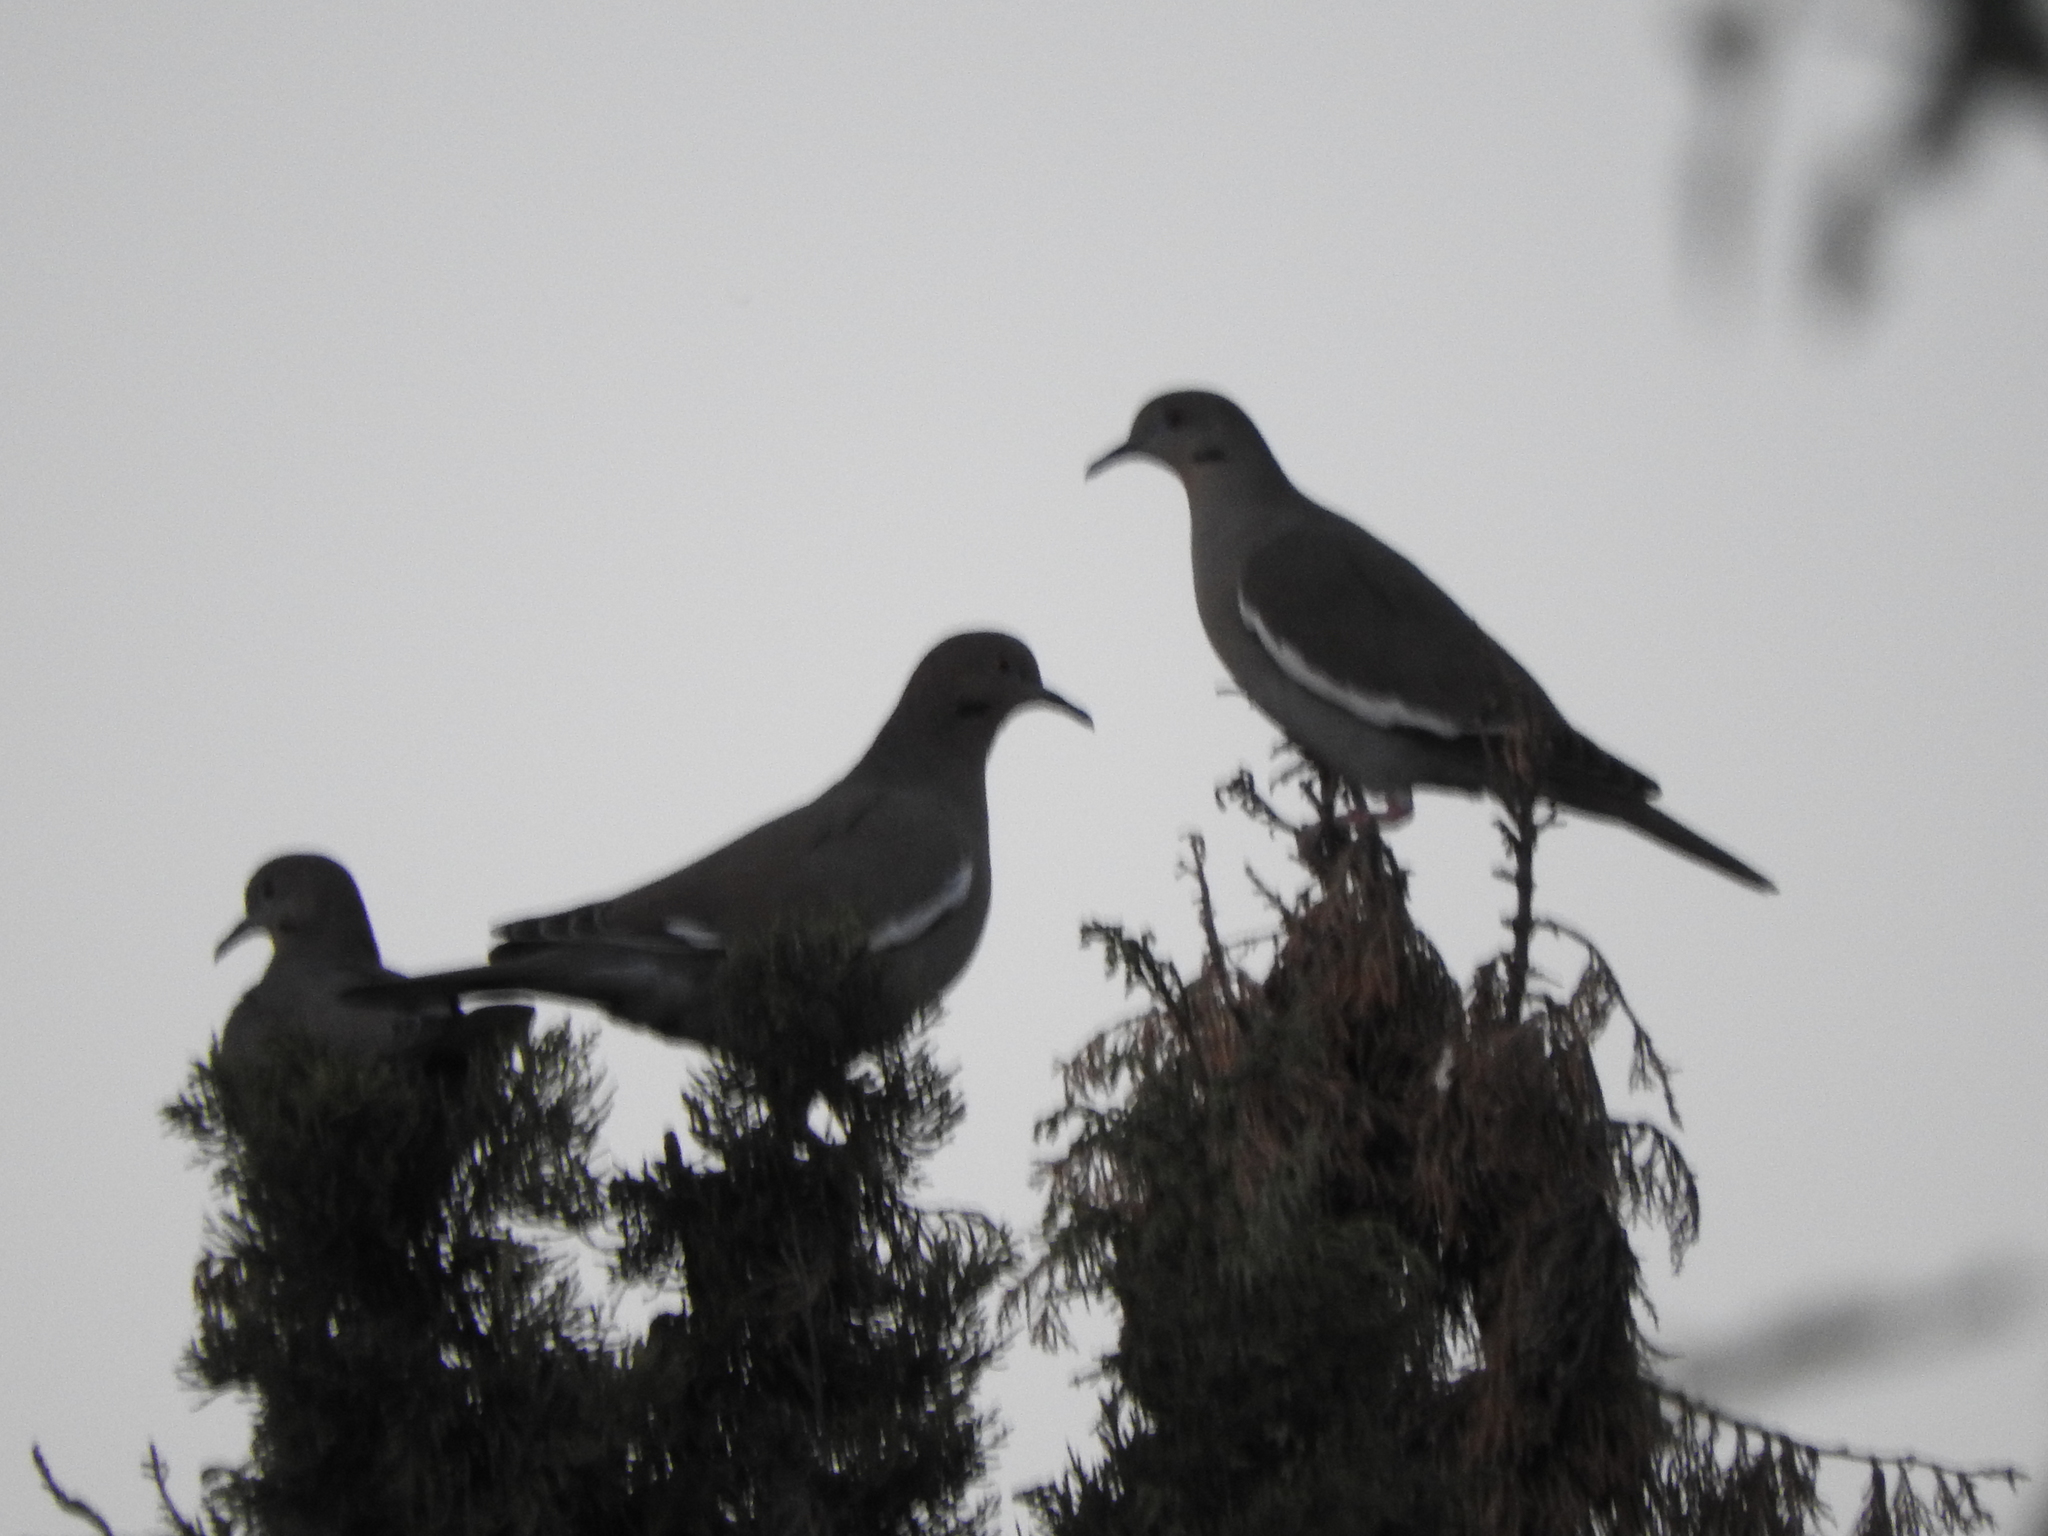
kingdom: Animalia
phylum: Chordata
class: Aves
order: Columbiformes
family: Columbidae
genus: Zenaida
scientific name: Zenaida asiatica
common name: White-winged dove
